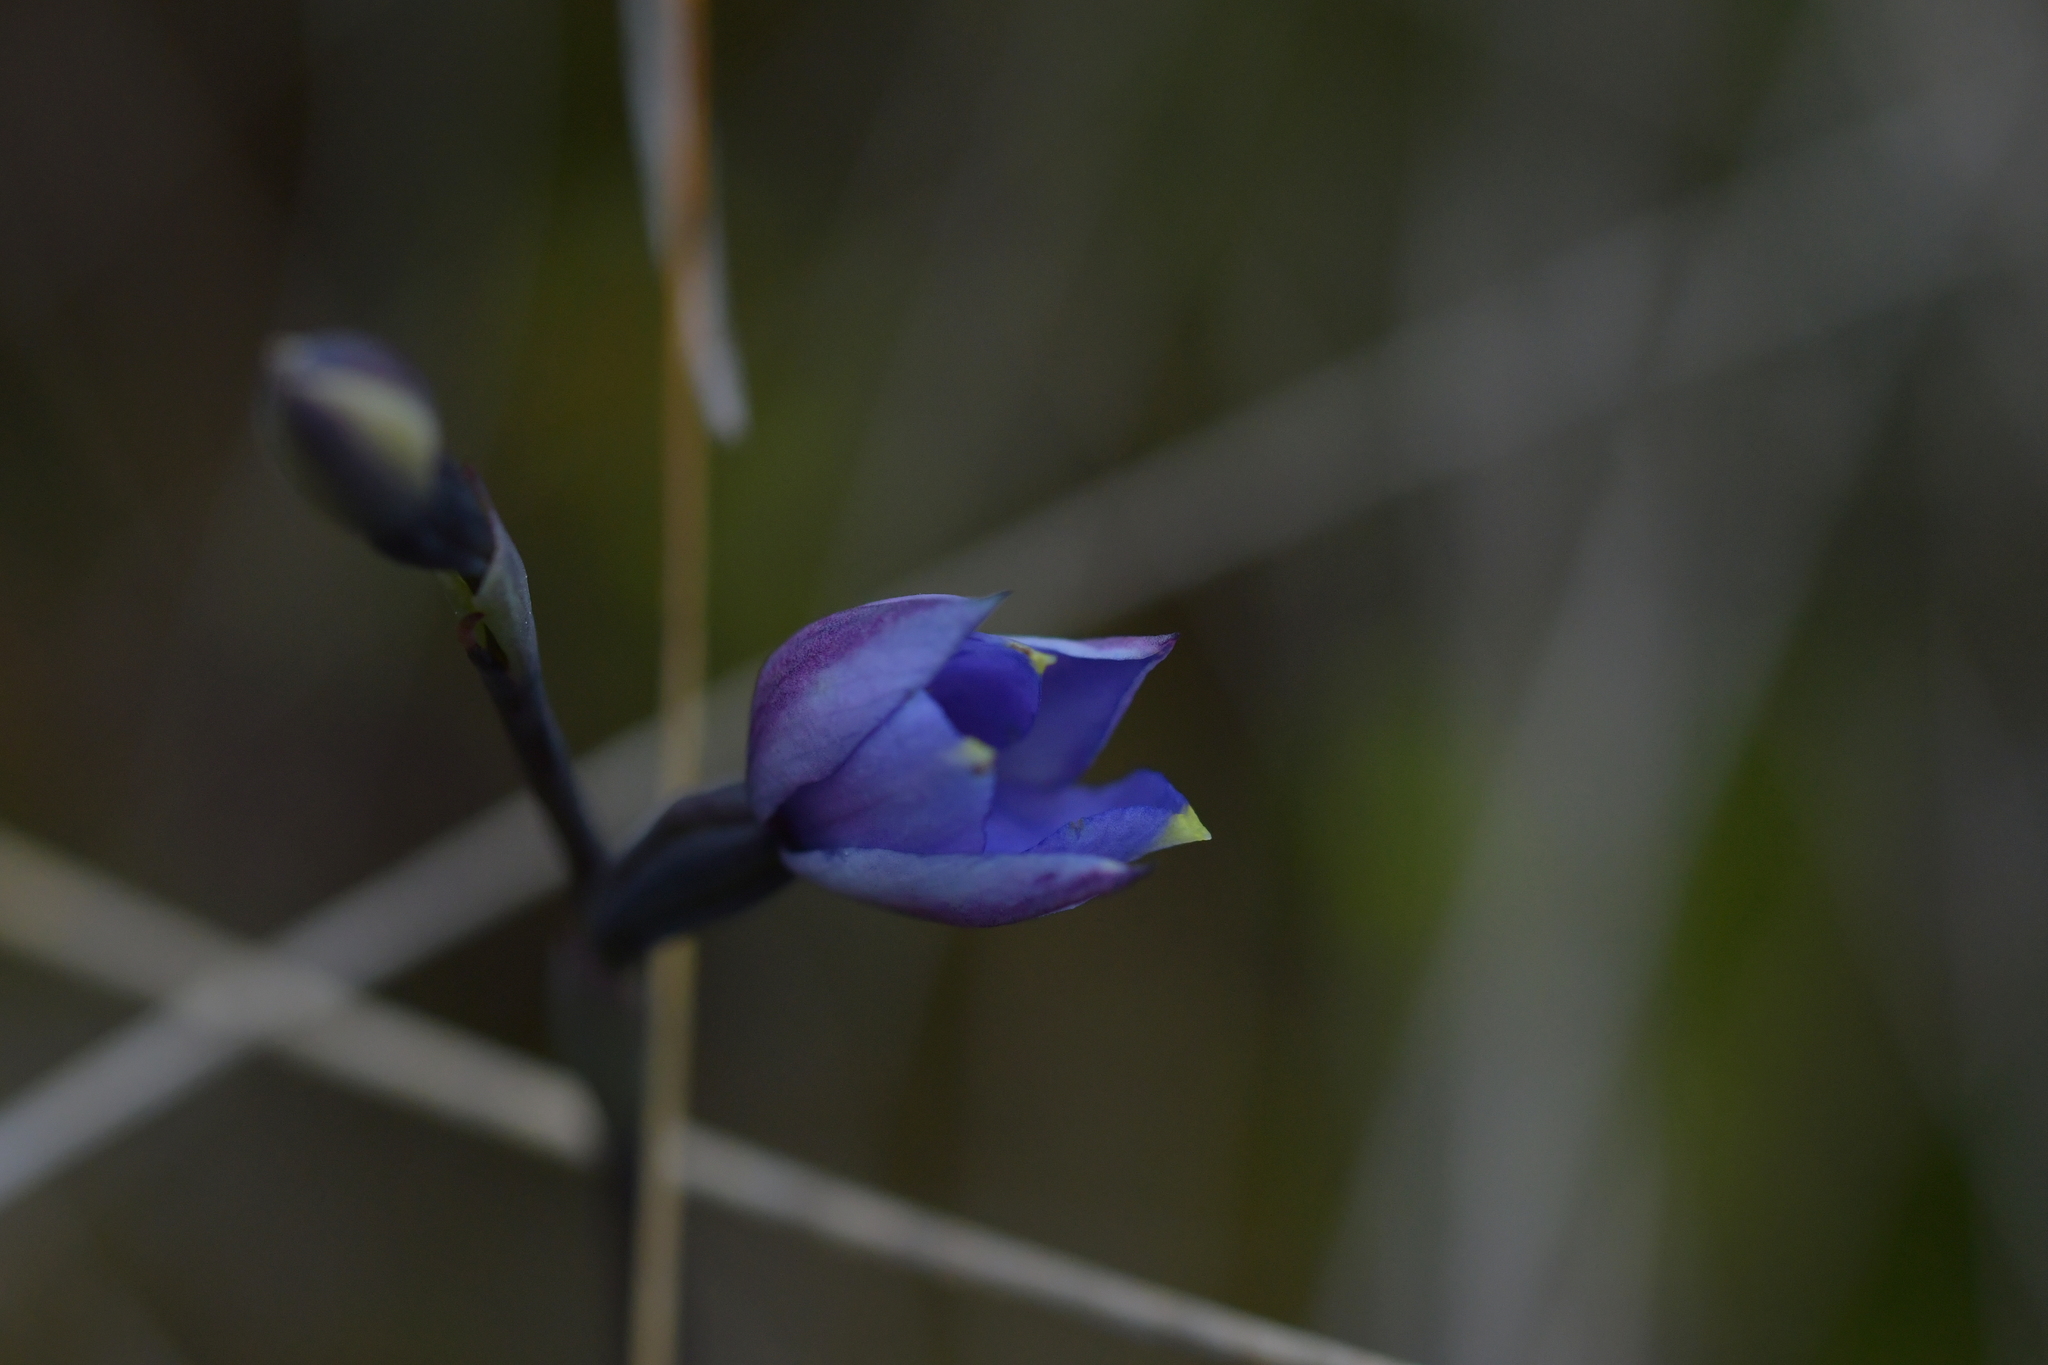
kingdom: Plantae
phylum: Tracheophyta
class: Liliopsida
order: Asparagales
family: Orchidaceae
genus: Thelymitra
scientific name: Thelymitra pulchella
